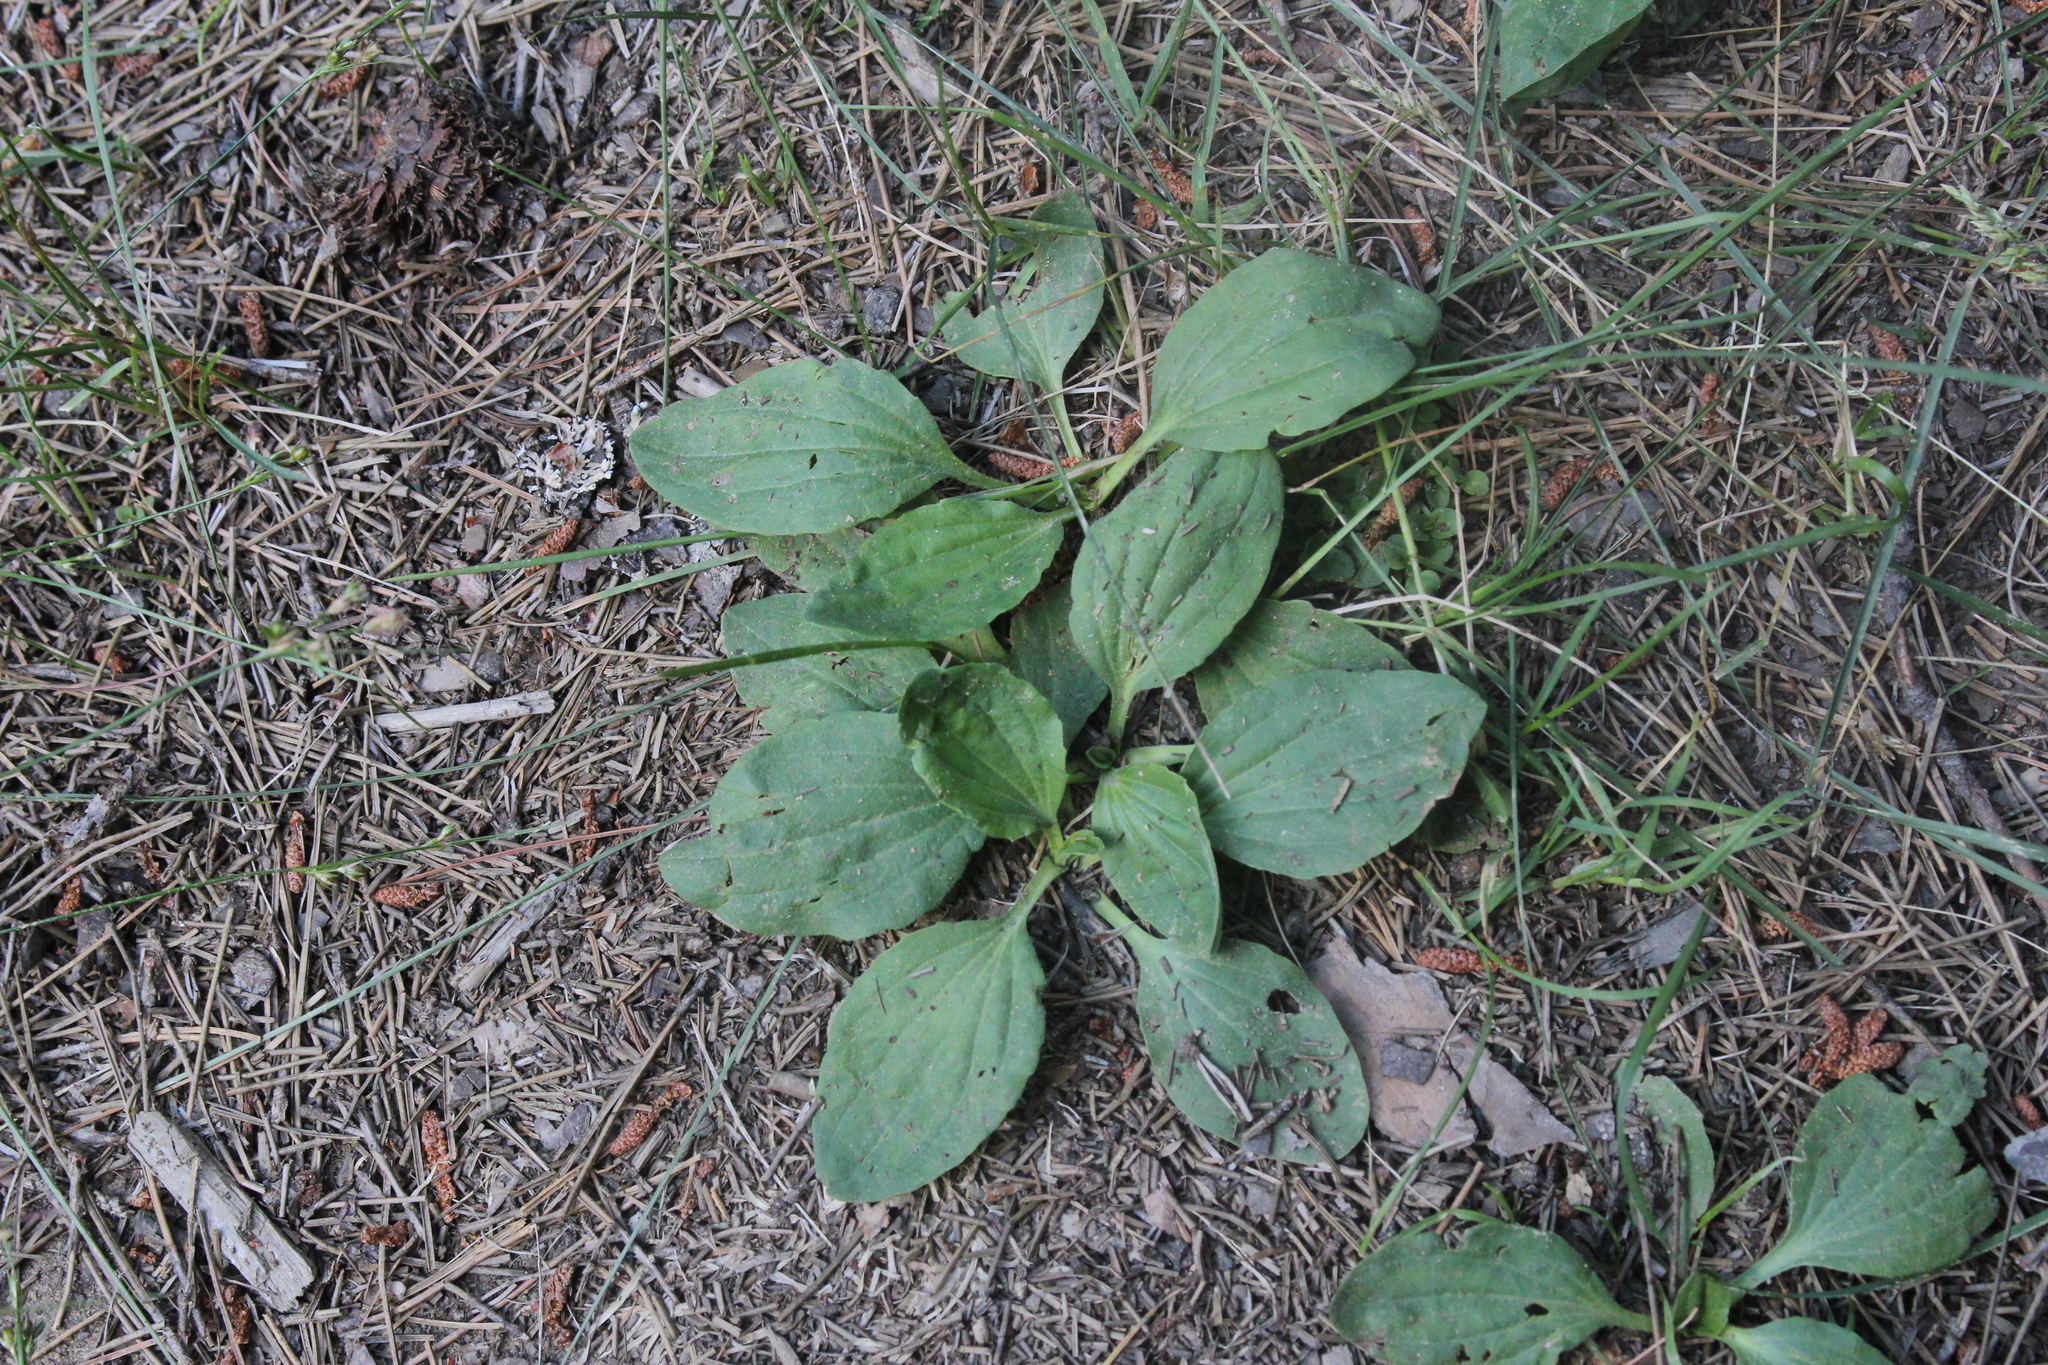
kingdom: Plantae
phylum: Tracheophyta
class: Magnoliopsida
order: Lamiales
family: Plantaginaceae
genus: Plantago
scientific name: Plantago major
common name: Common plantain
